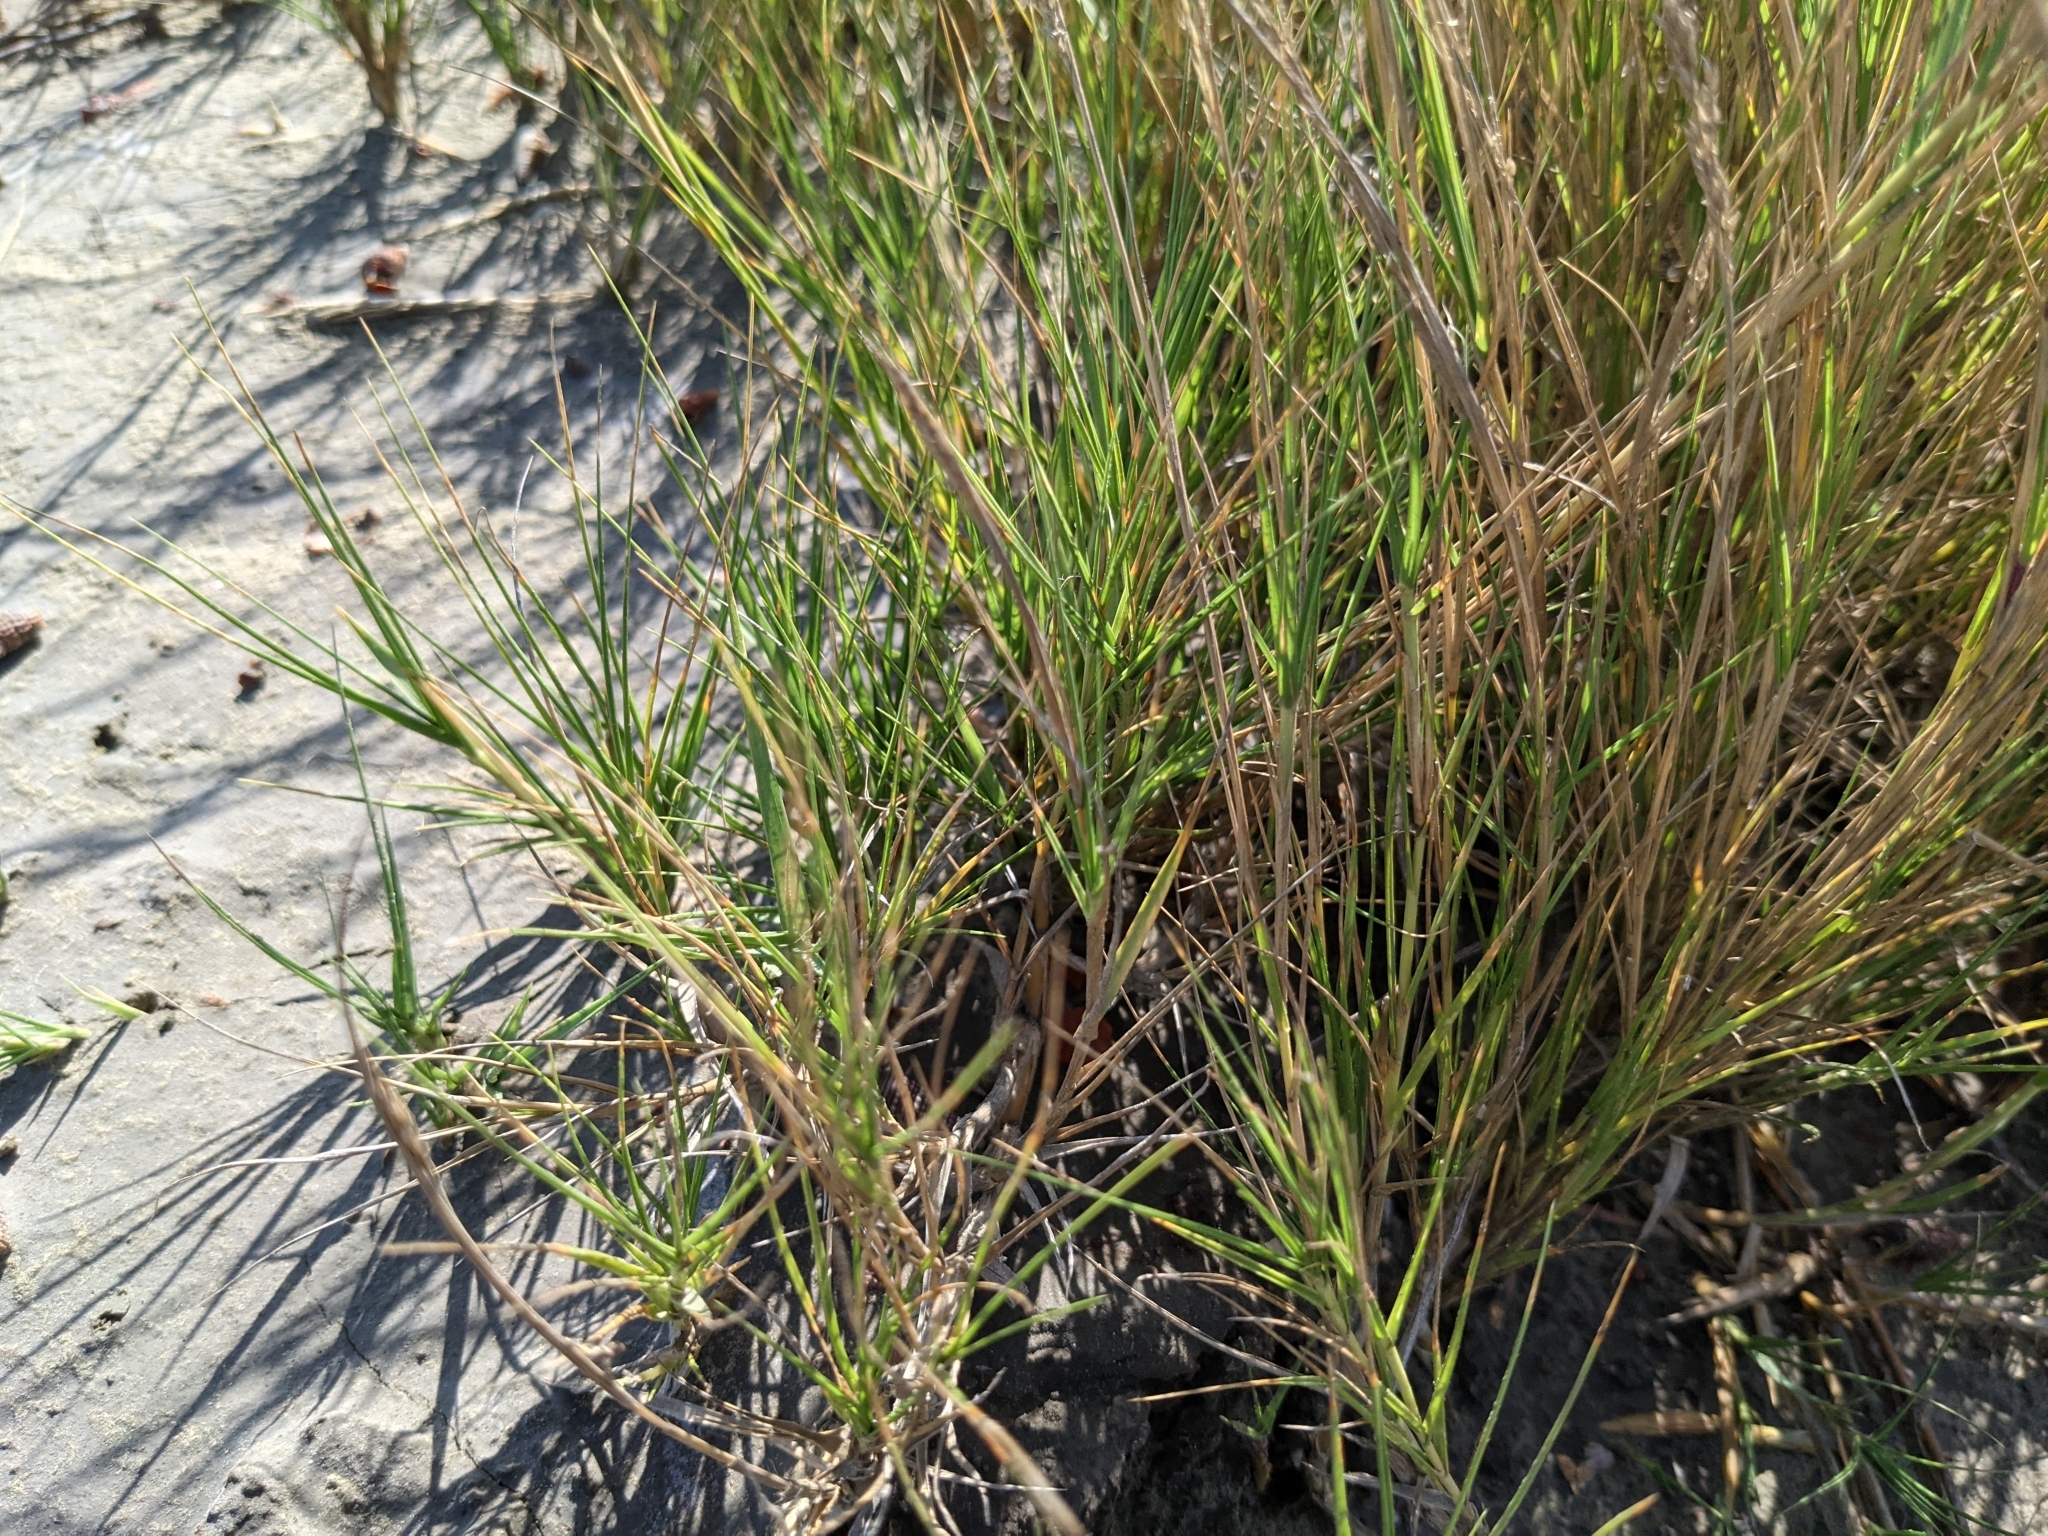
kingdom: Plantae
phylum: Tracheophyta
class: Liliopsida
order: Poales
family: Poaceae
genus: Sporobolus
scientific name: Sporobolus virginicus
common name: Beach dropseed
